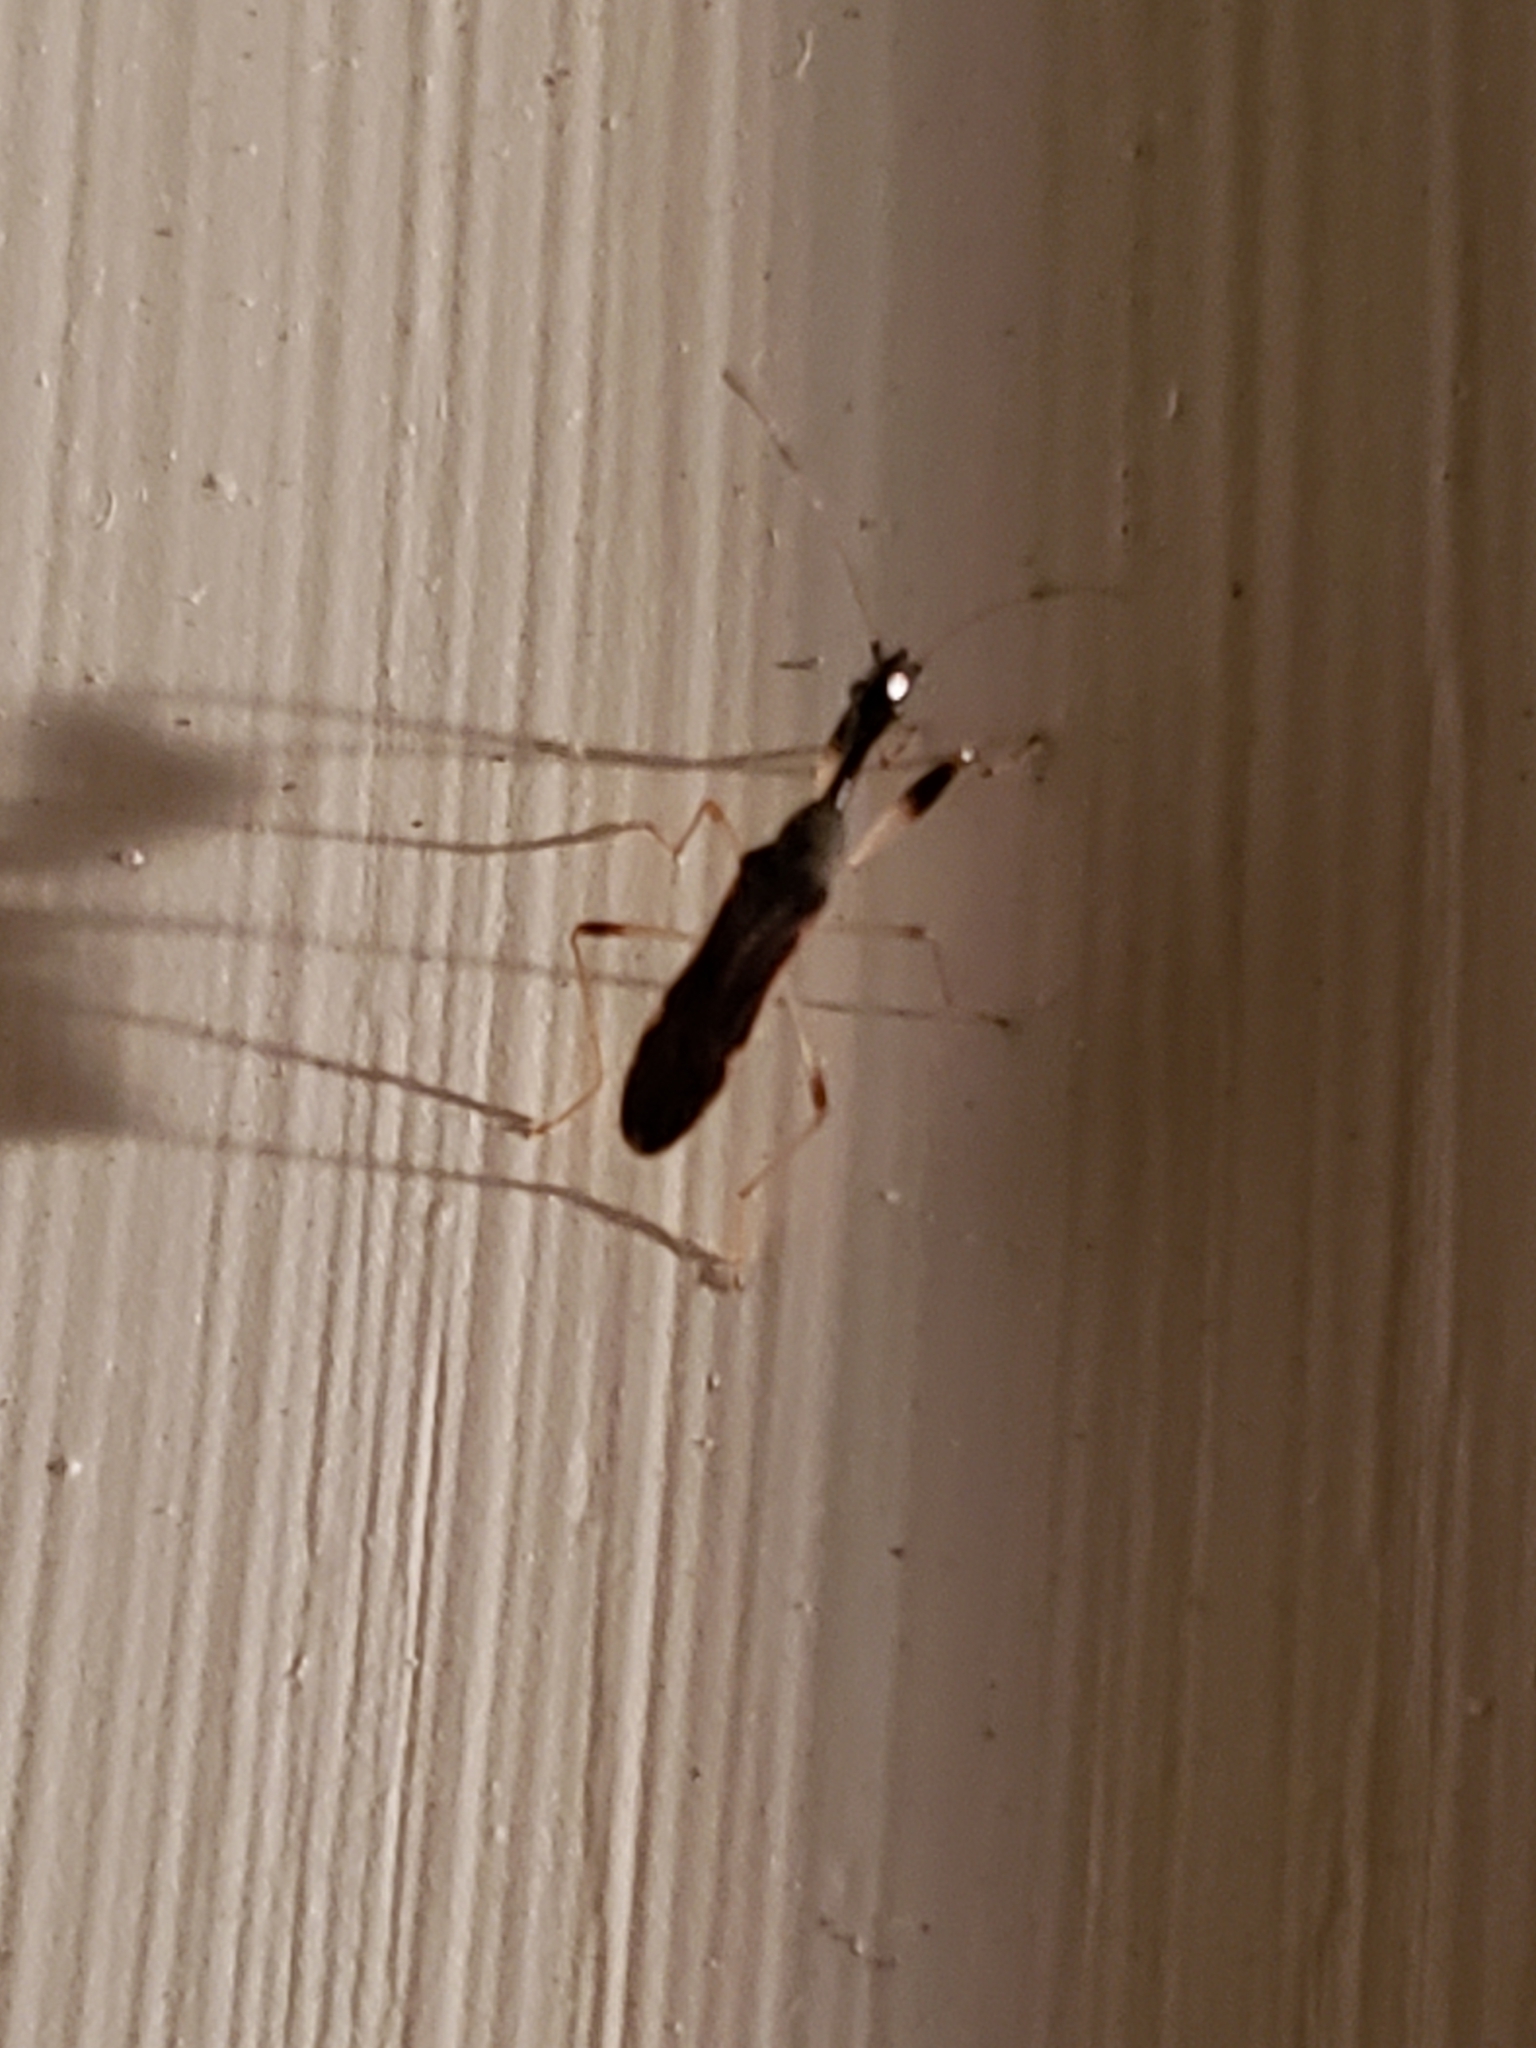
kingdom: Animalia
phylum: Arthropoda
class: Insecta
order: Hemiptera
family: Rhyparochromidae
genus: Myodocha
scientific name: Myodocha serripes
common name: Long-necked seed bug
